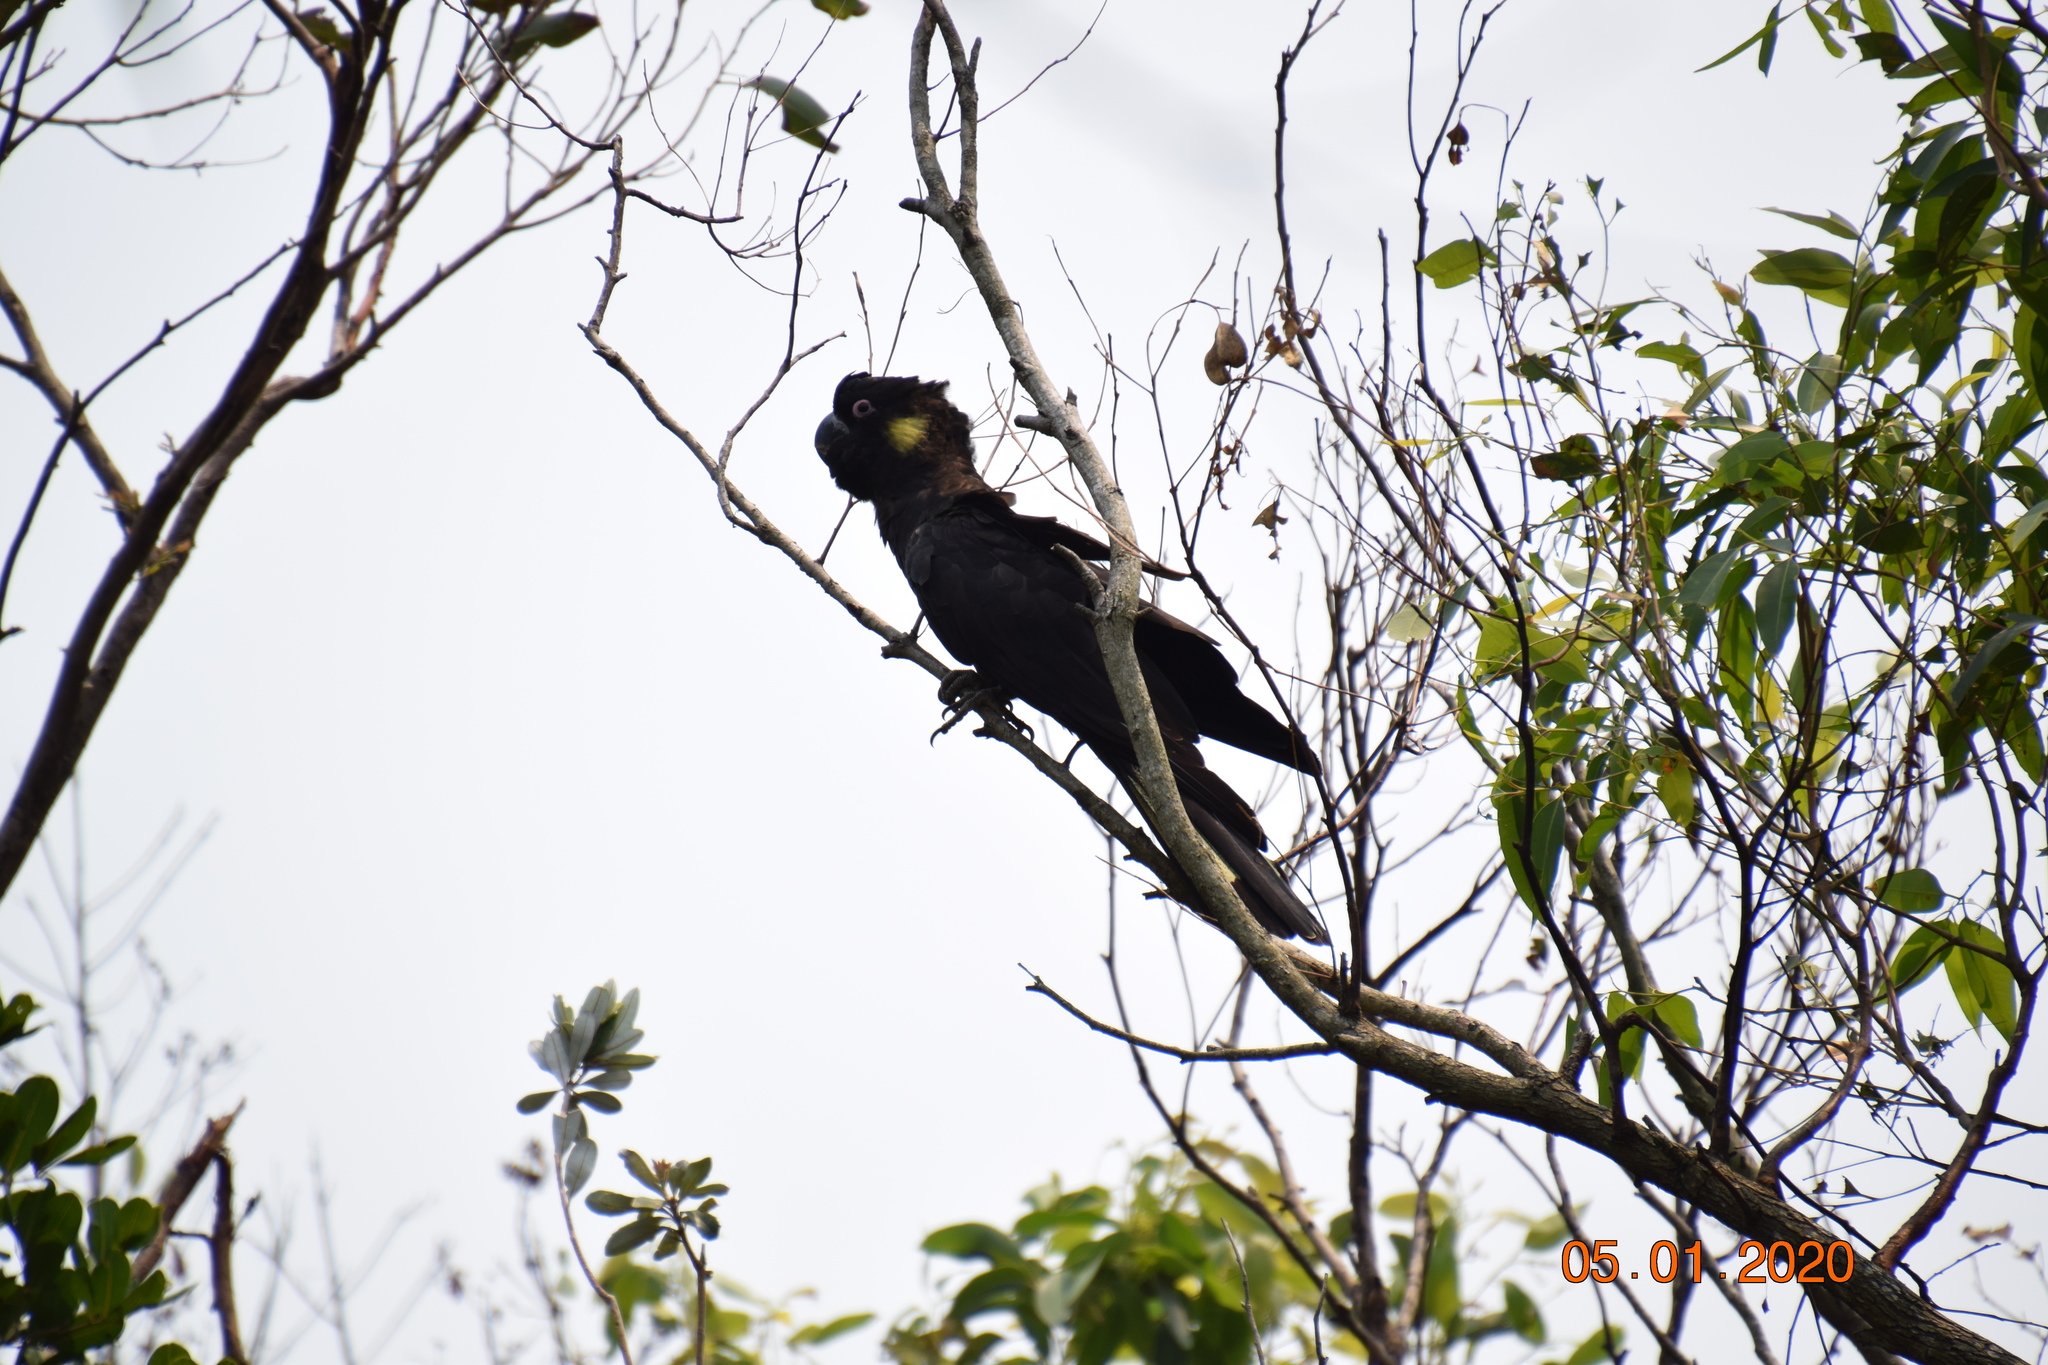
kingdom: Animalia
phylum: Chordata
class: Aves
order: Psittaciformes
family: Cacatuidae
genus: Zanda
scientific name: Zanda funerea
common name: Yellow-tailed black-cockatoo
